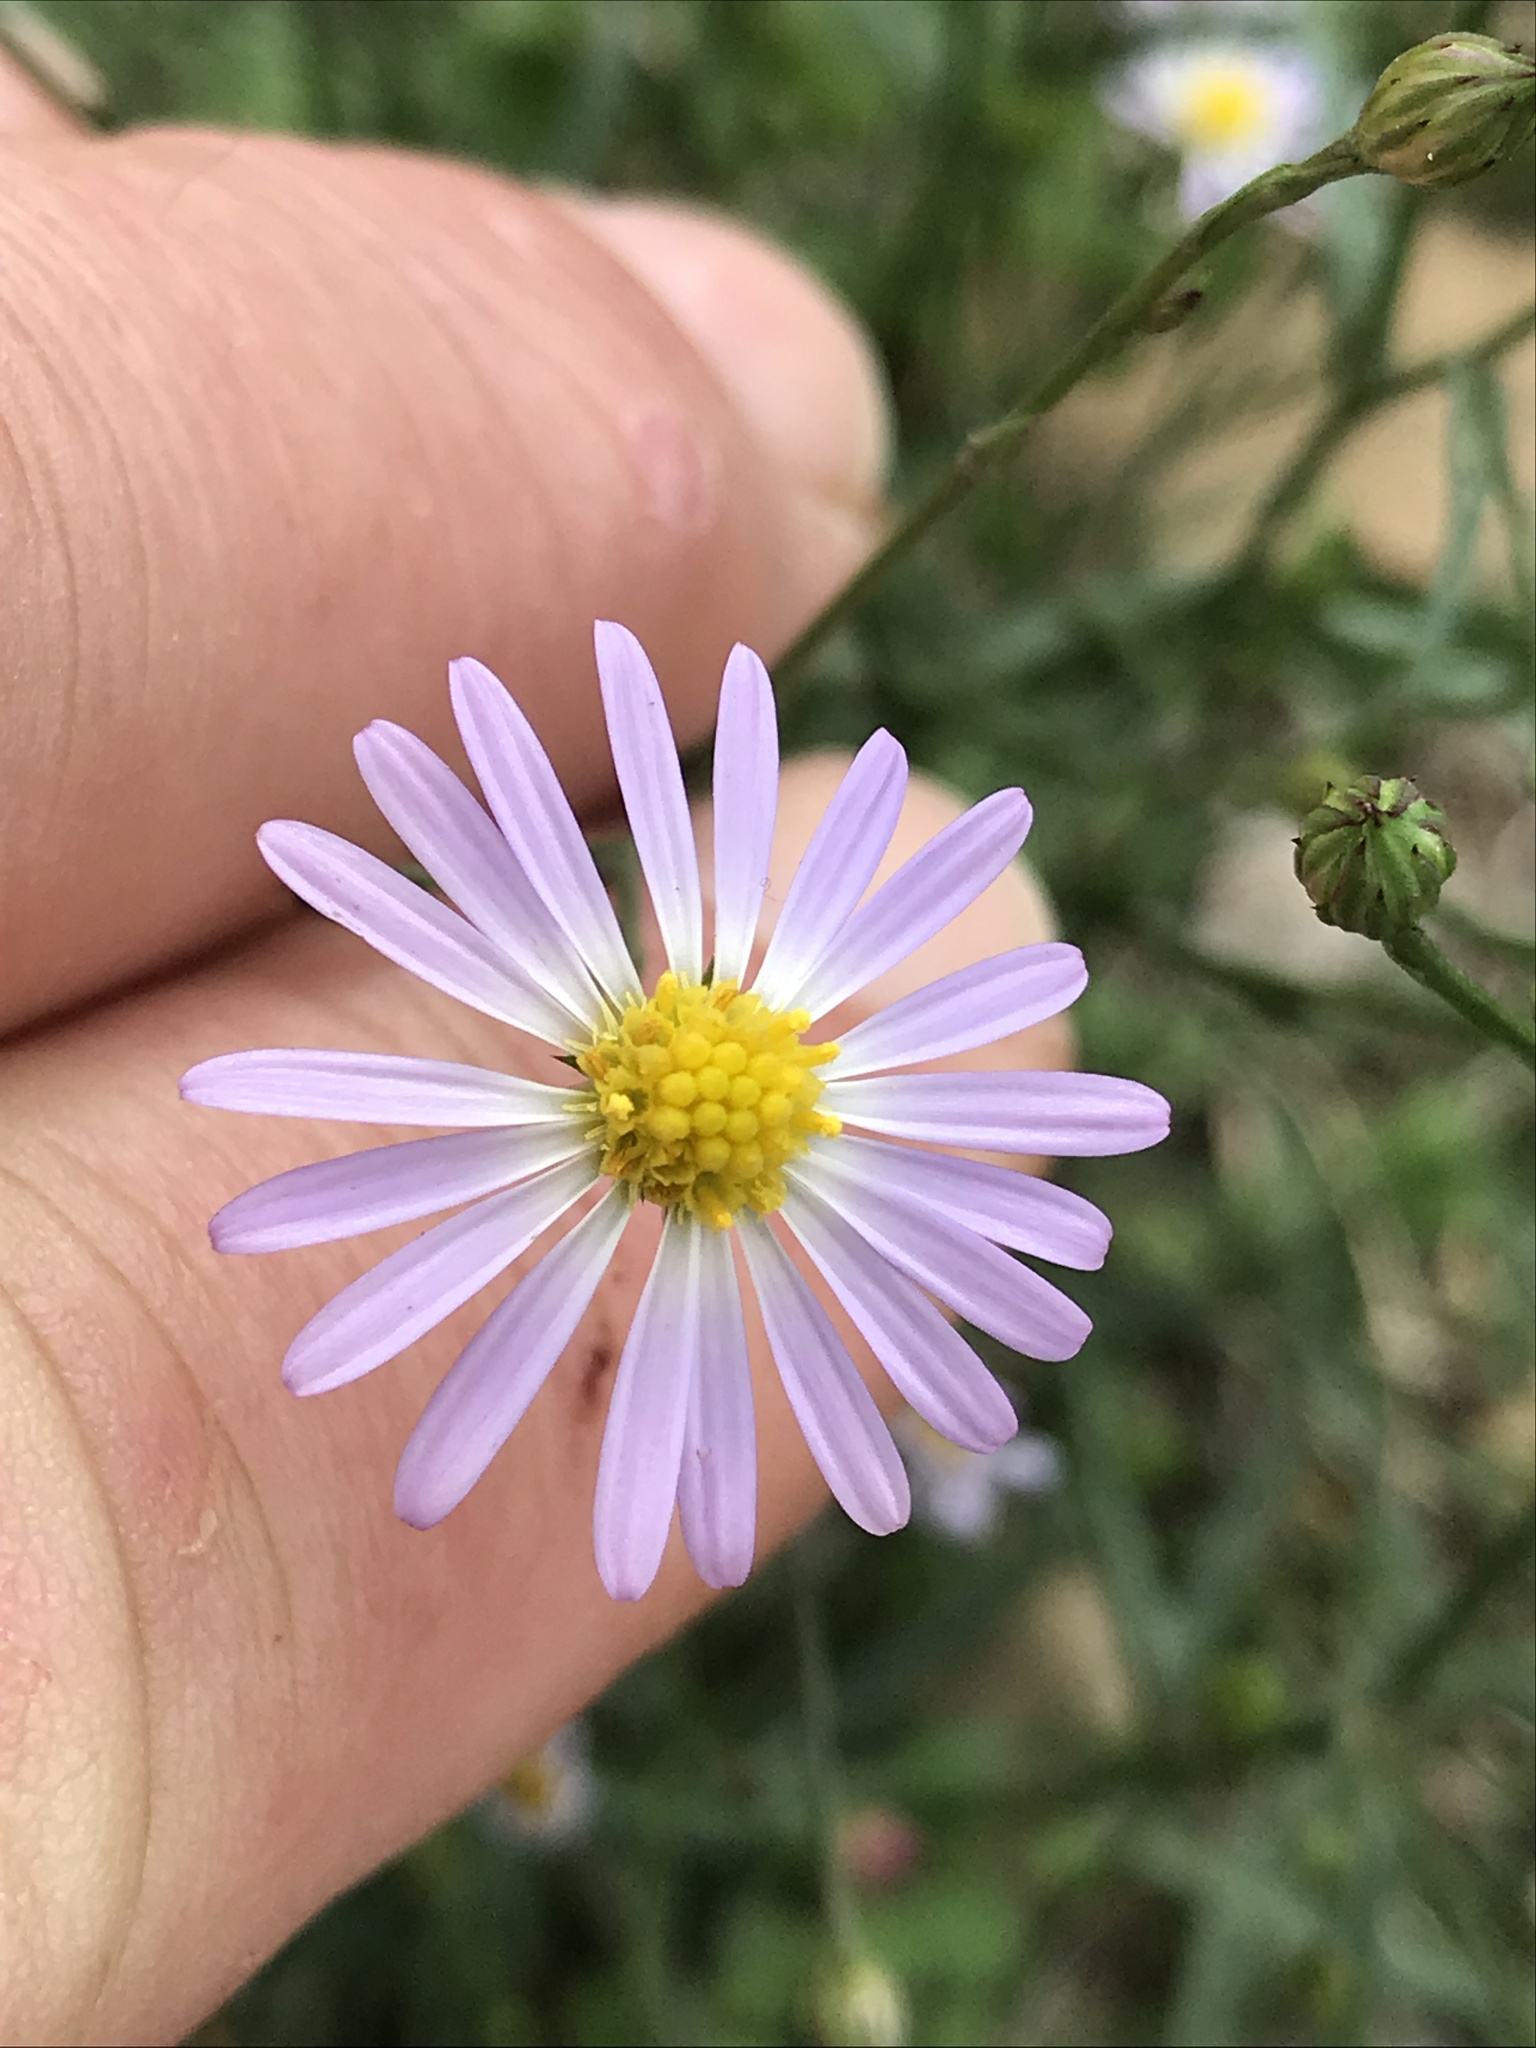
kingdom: Plantae
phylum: Tracheophyta
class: Magnoliopsida
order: Asterales
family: Asteraceae
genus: Symphyotrichum
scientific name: Symphyotrichum divaricatum
